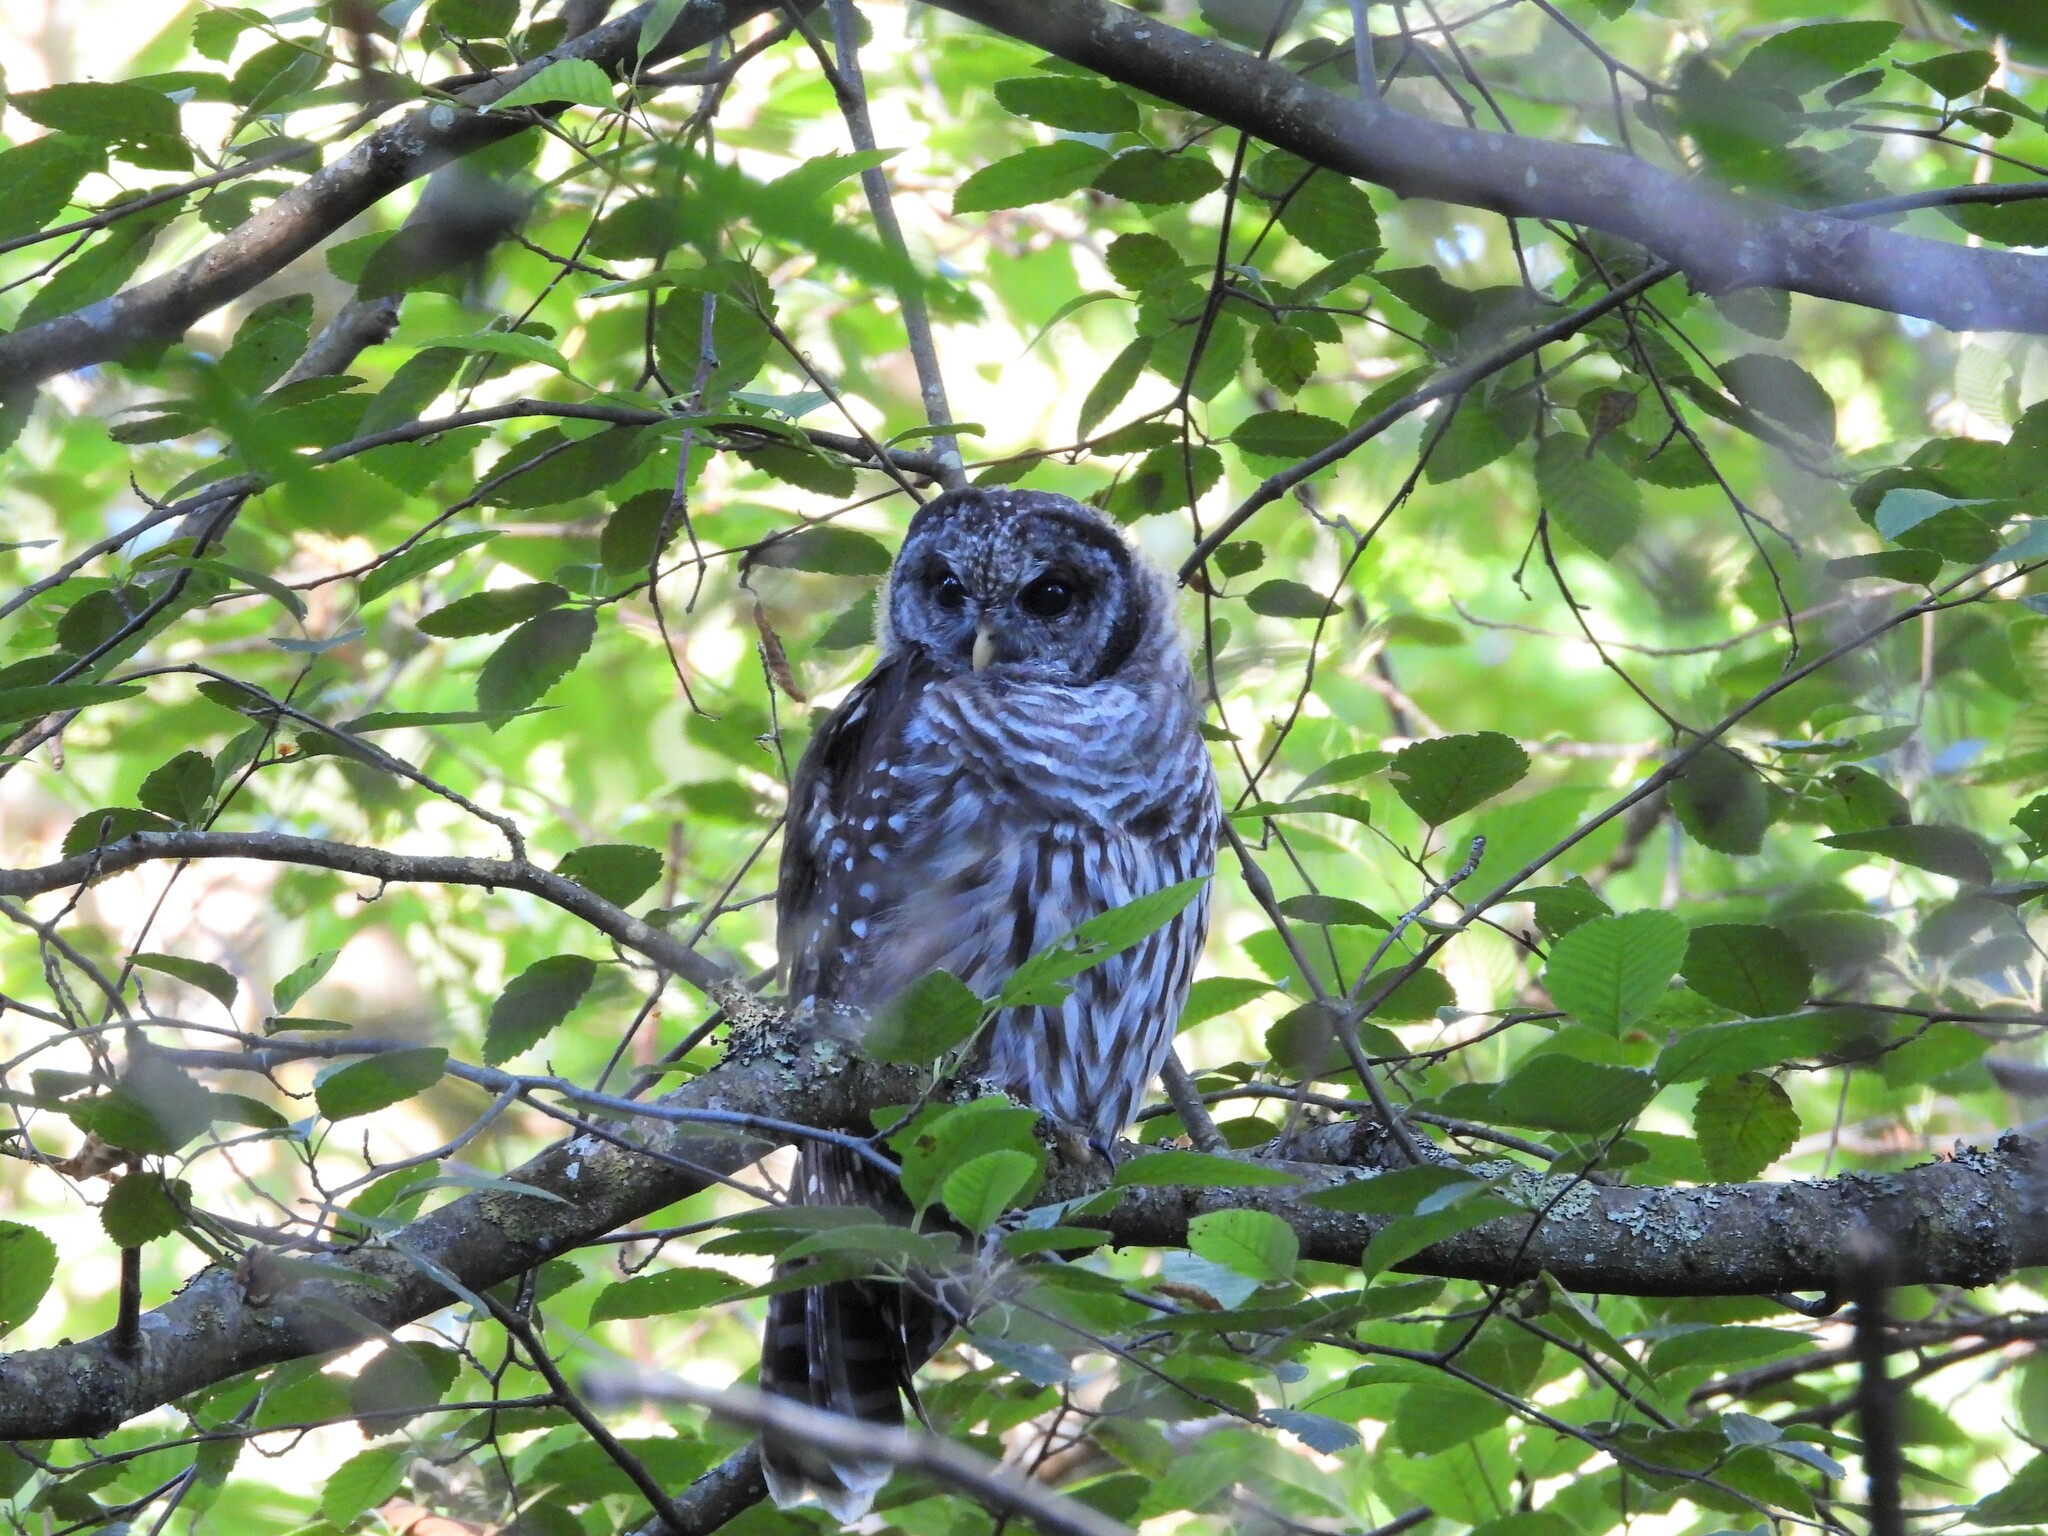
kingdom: Animalia
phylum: Chordata
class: Aves
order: Strigiformes
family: Strigidae
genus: Strix
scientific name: Strix varia
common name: Barred owl
